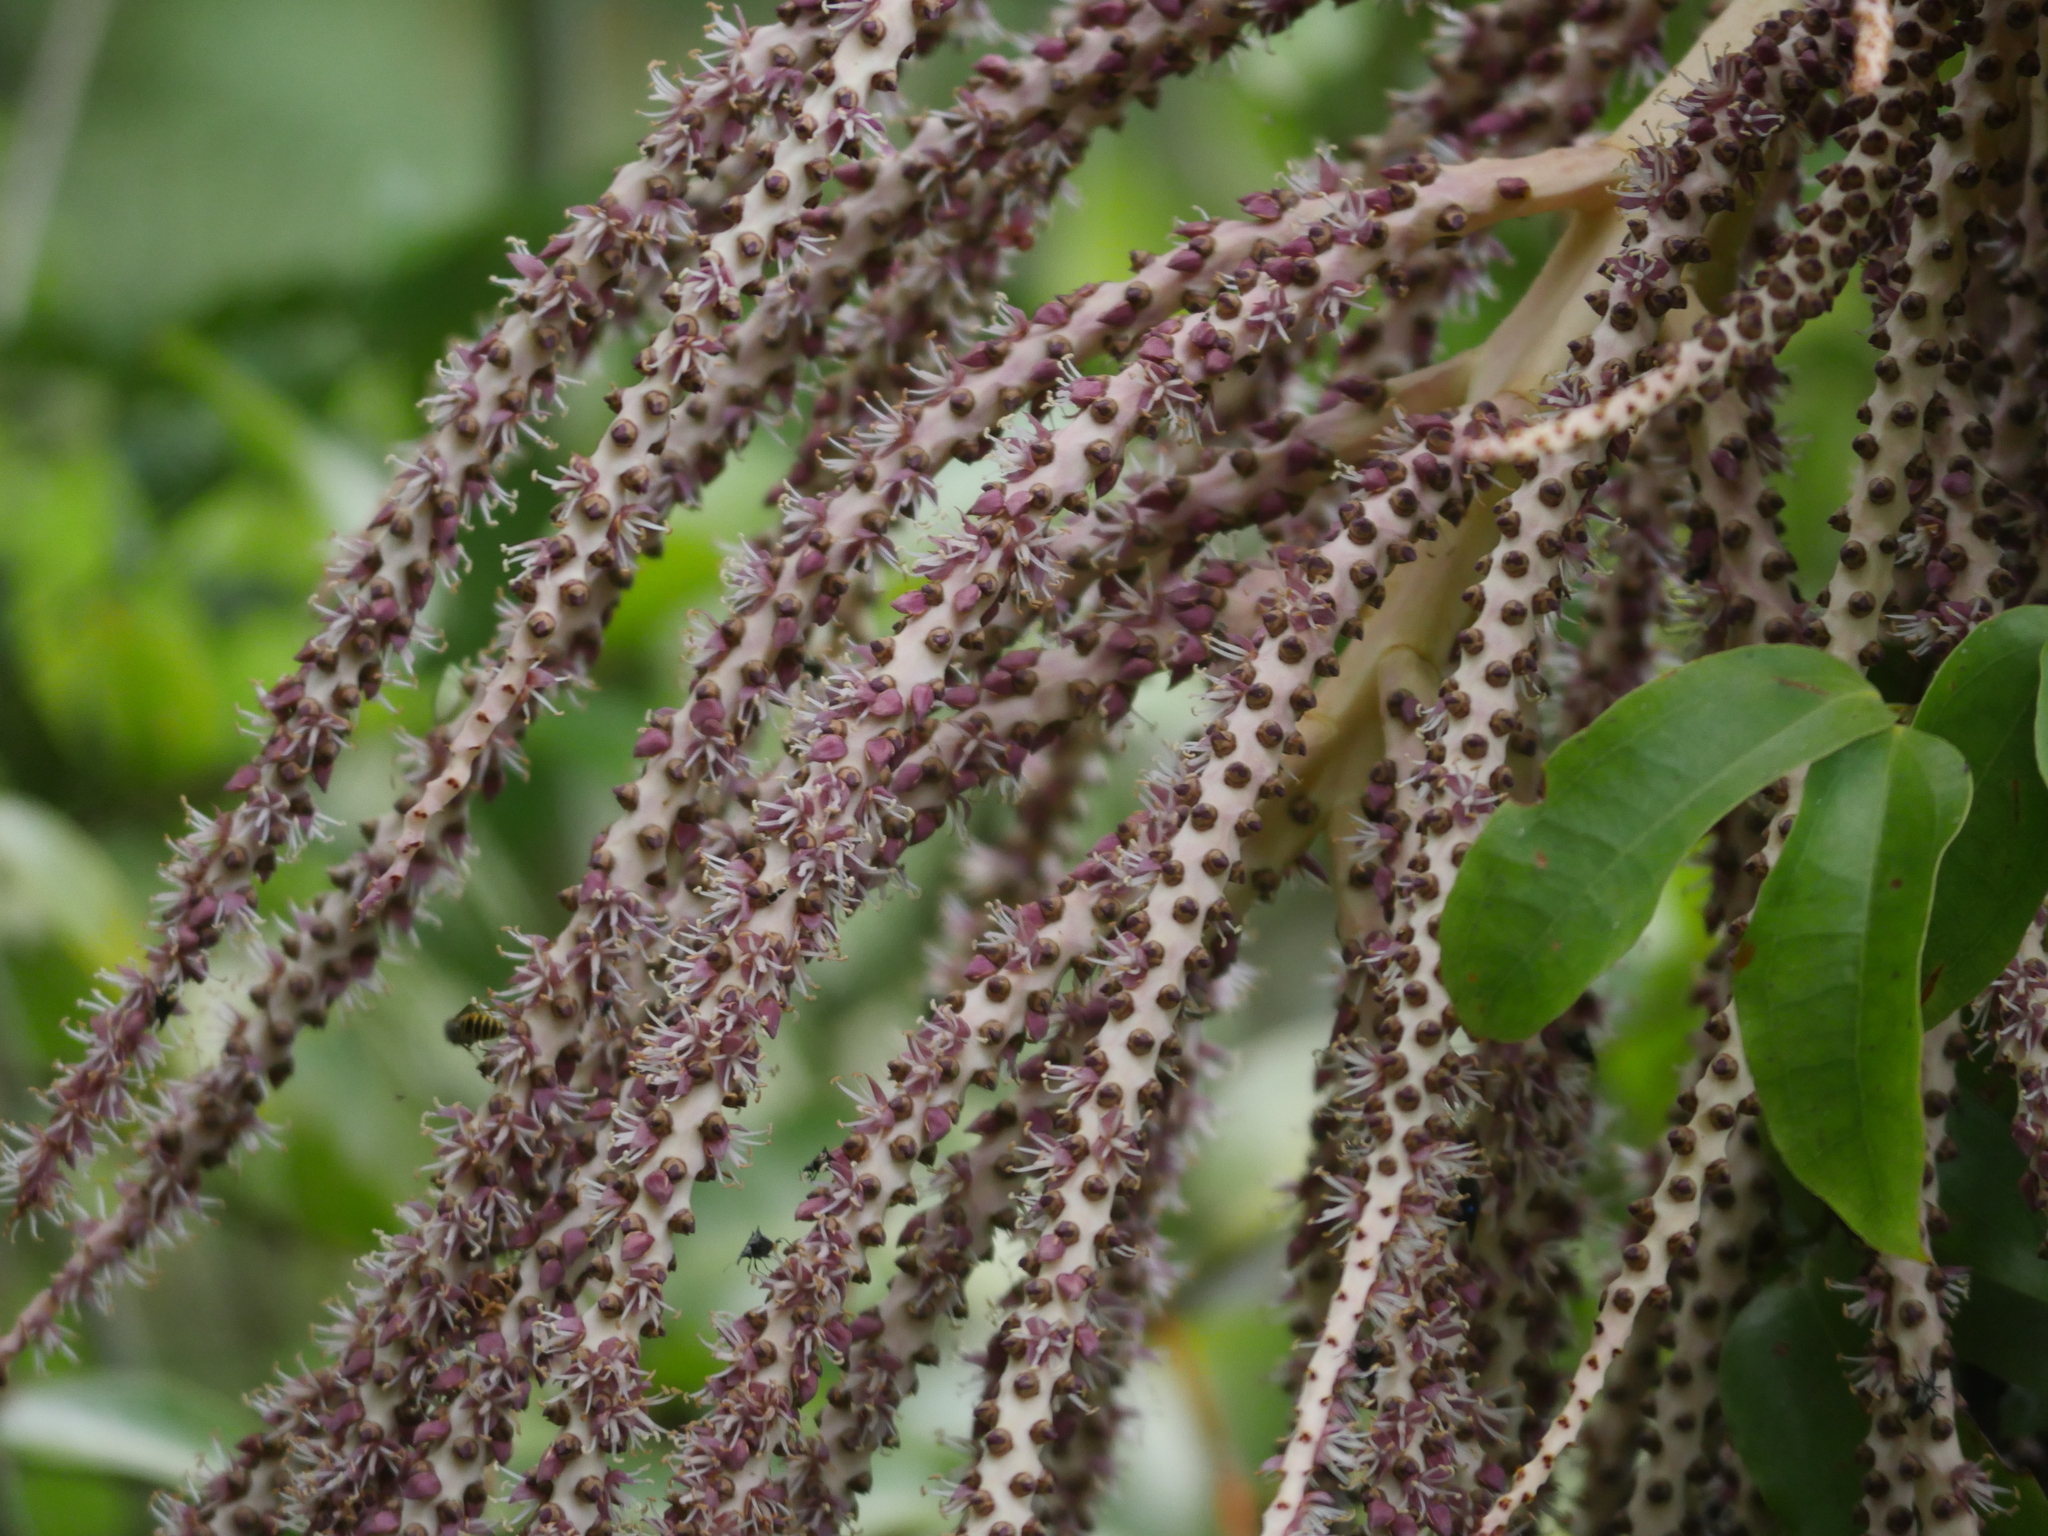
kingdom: Plantae
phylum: Tracheophyta
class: Liliopsida
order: Arecales
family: Arecaceae
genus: Rhopalostylis
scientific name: Rhopalostylis sapida
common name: Feather-duster palm
